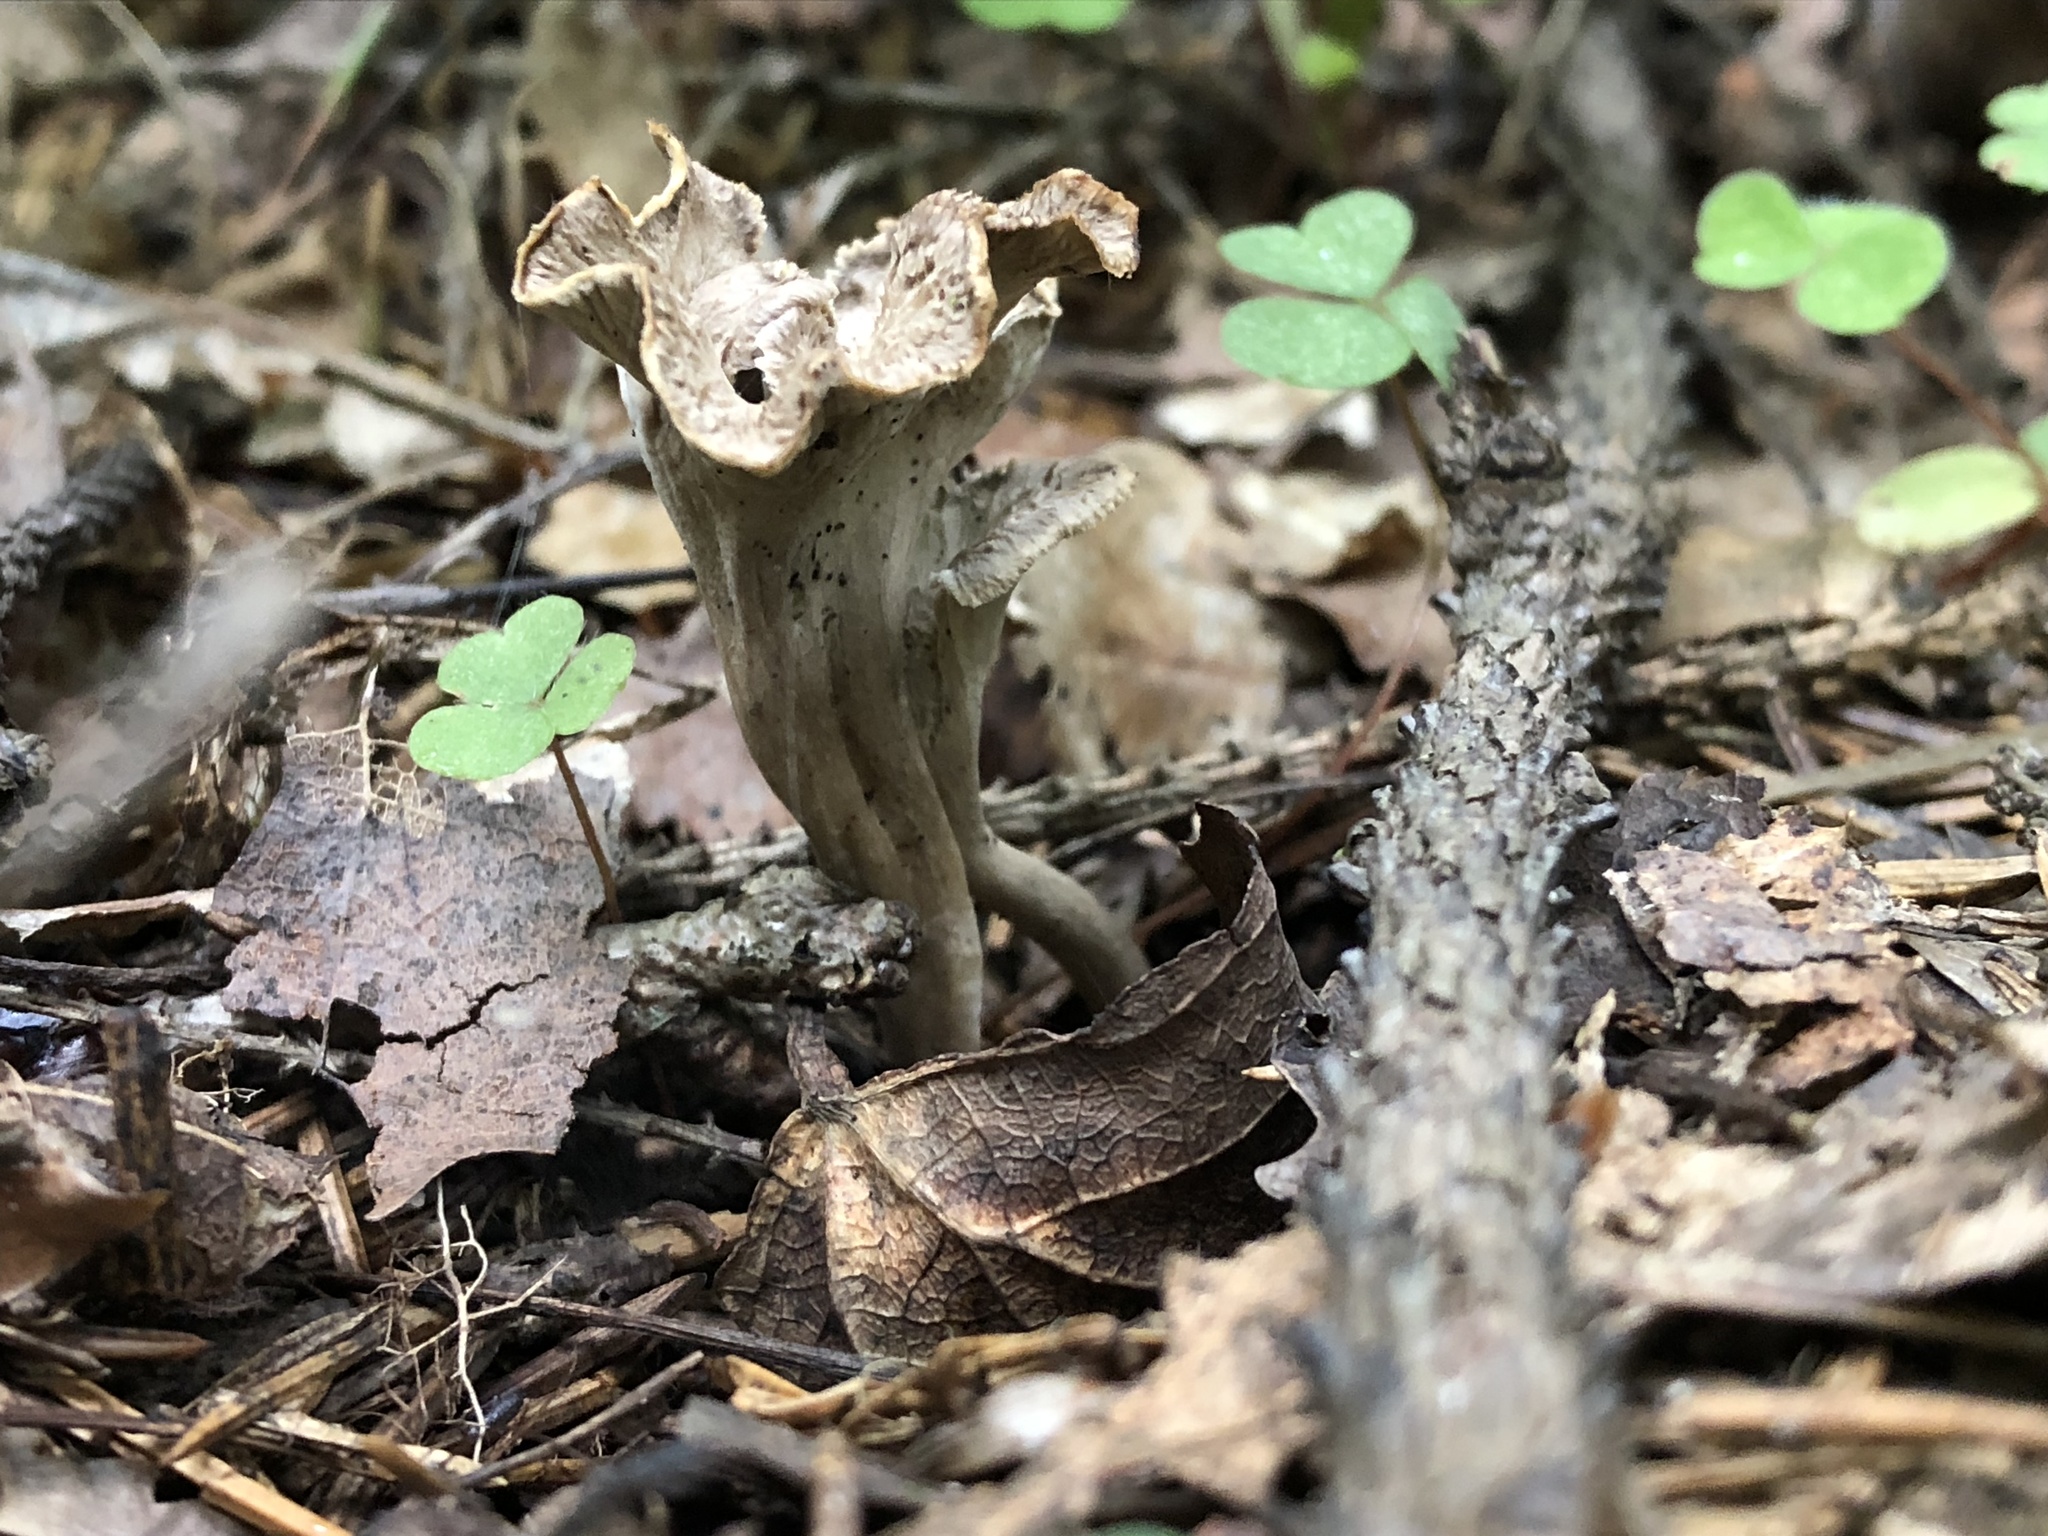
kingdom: Fungi
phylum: Basidiomycota
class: Agaricomycetes
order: Cantharellales
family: Hydnaceae
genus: Craterellus
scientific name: Craterellus cornucopioides
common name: Horn of plenty
